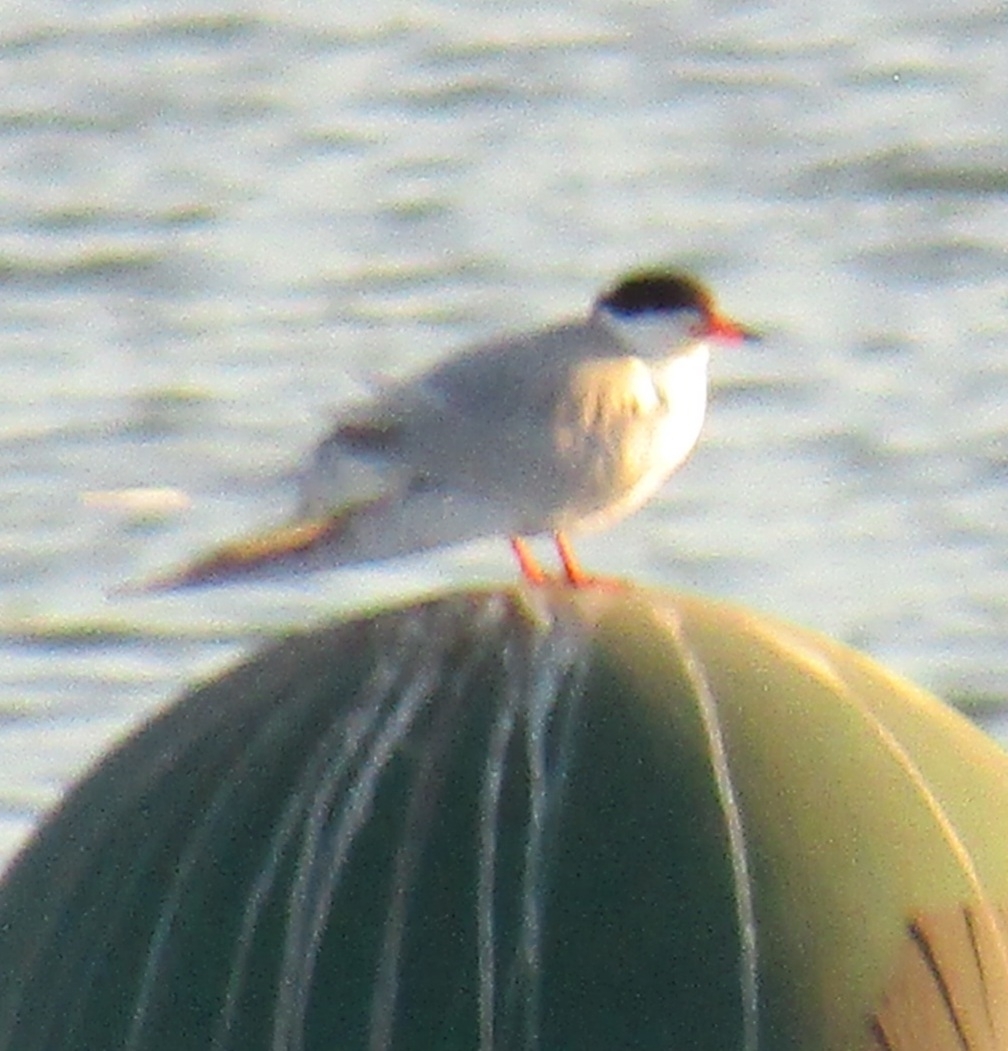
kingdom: Animalia
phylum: Chordata
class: Aves
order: Charadriiformes
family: Laridae
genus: Sterna
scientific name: Sterna forsteri
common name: Forster's tern
